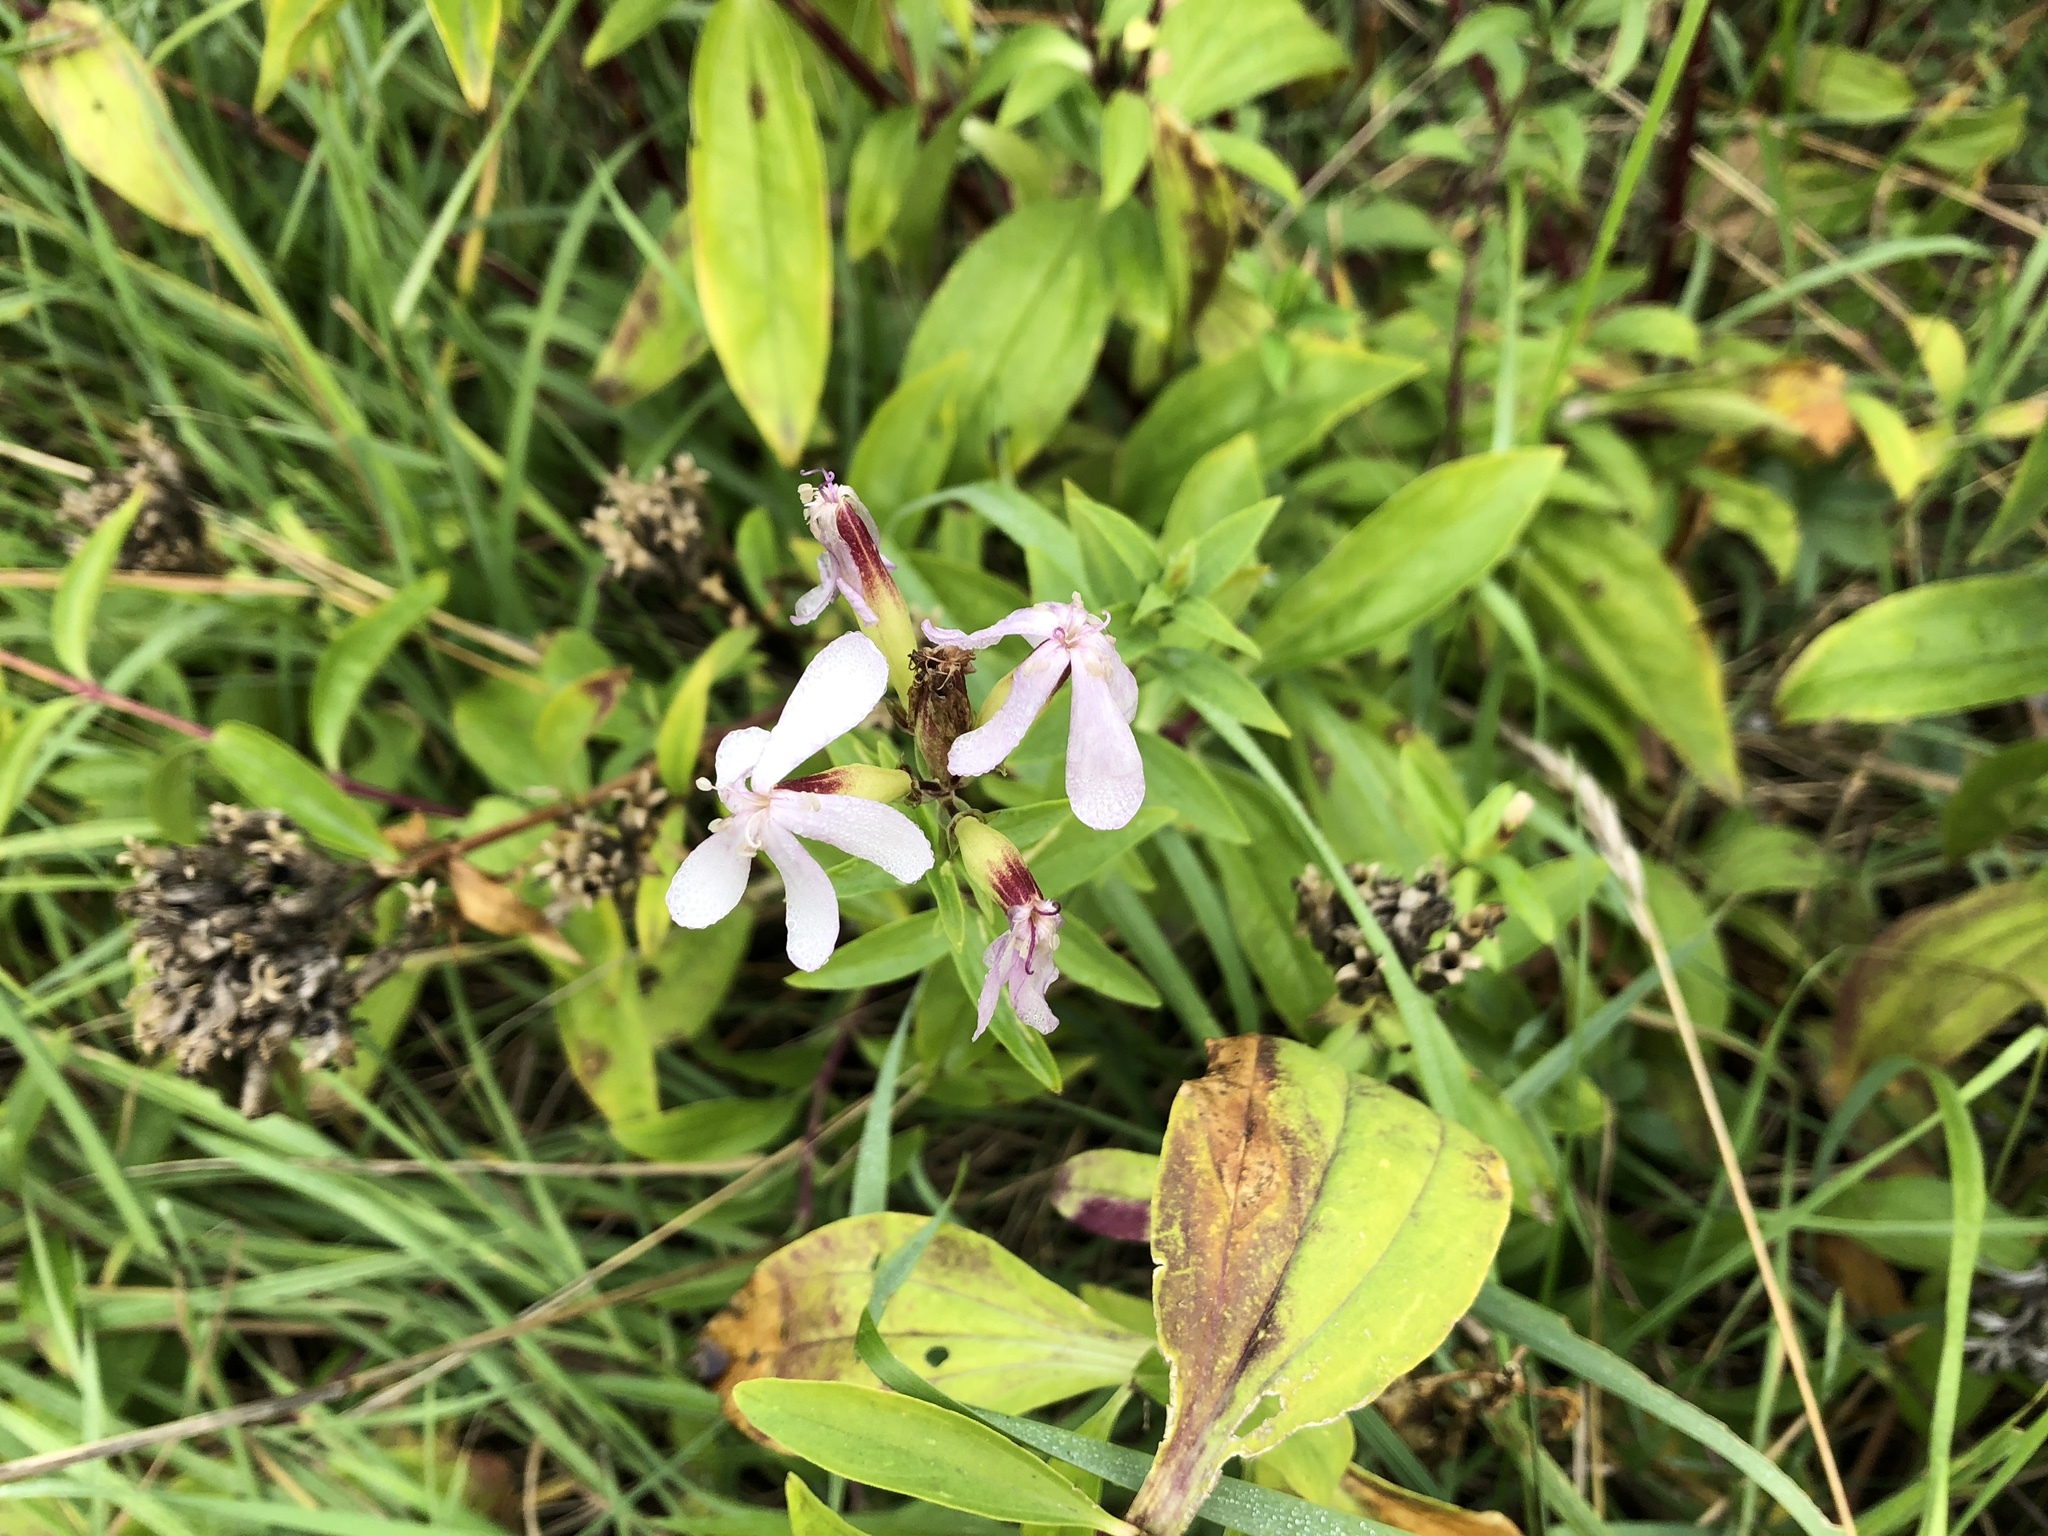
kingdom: Plantae
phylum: Tracheophyta
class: Magnoliopsida
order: Caryophyllales
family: Caryophyllaceae
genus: Saponaria
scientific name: Saponaria officinalis
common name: Soapwort
